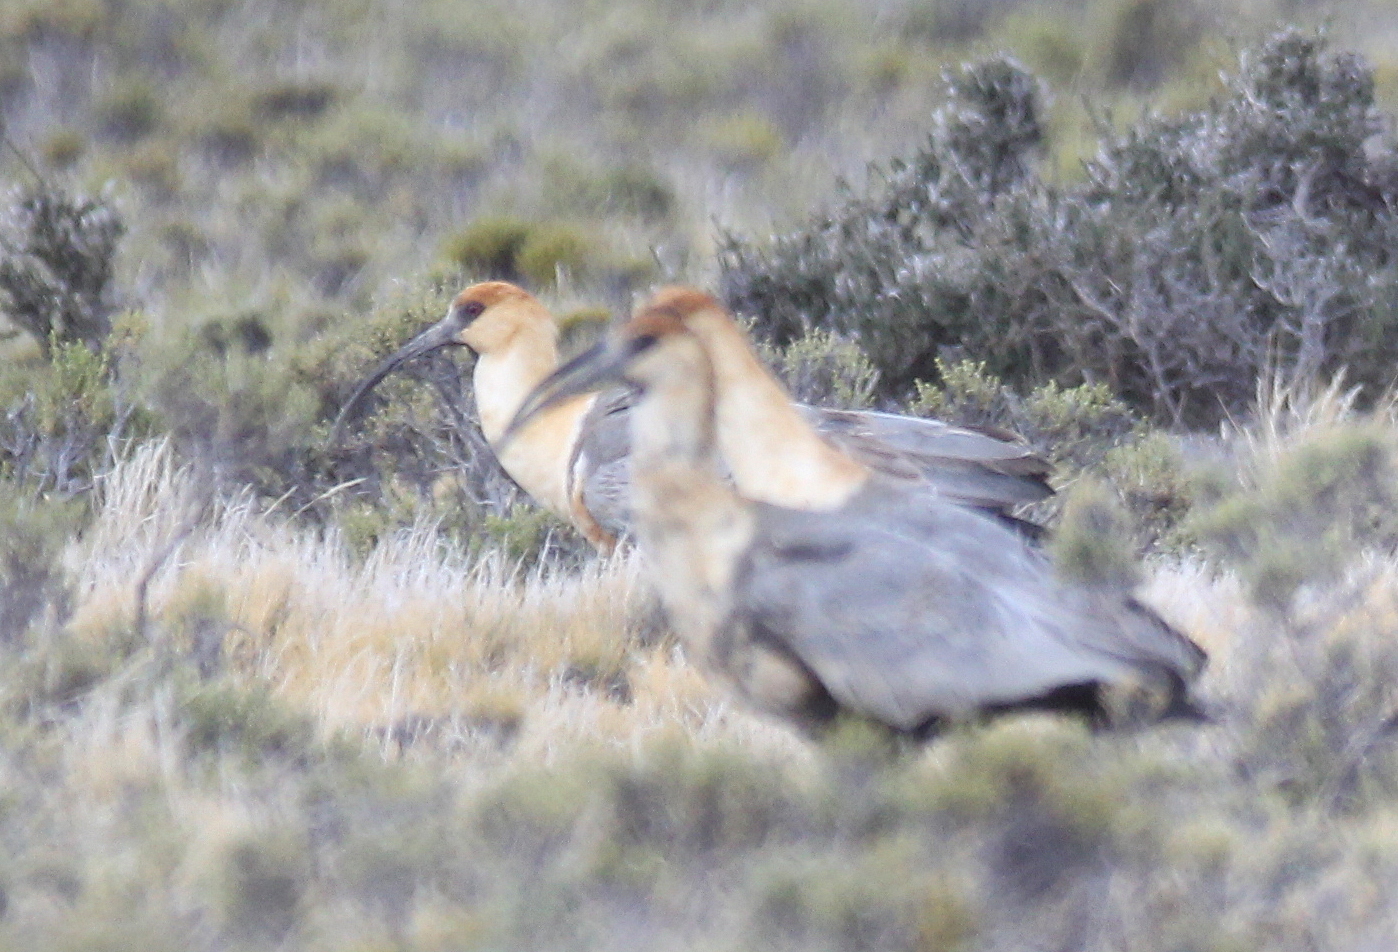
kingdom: Animalia
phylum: Chordata
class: Aves
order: Pelecaniformes
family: Threskiornithidae
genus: Theristicus
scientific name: Theristicus melanopis
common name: Black-faced ibis
